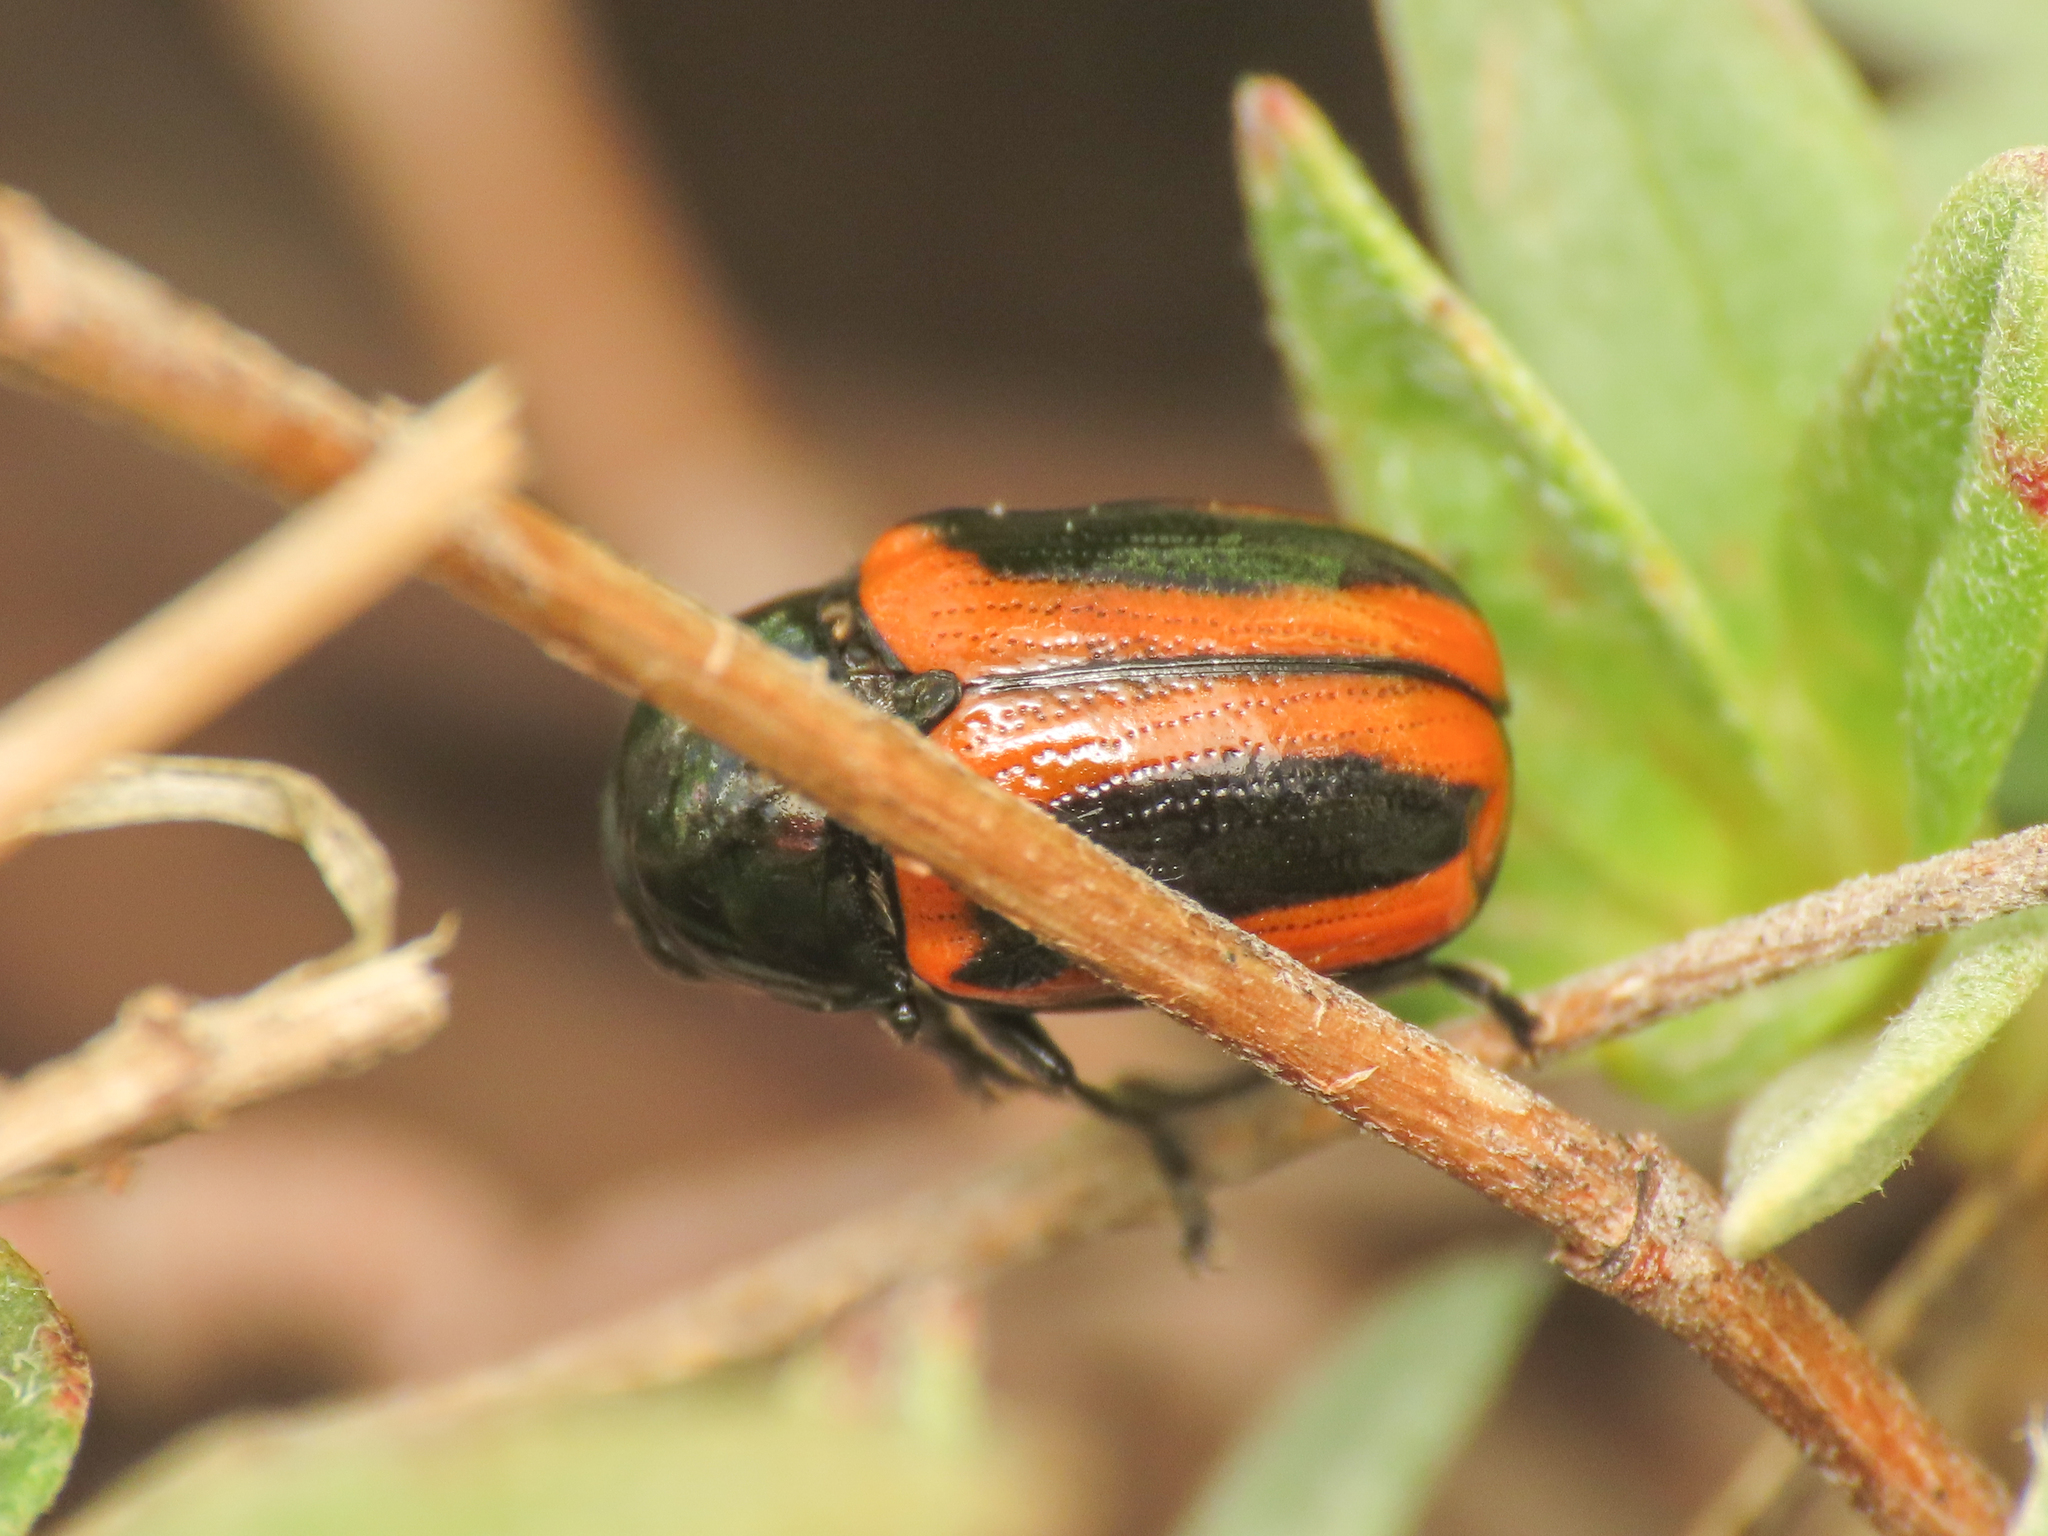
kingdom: Animalia
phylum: Arthropoda
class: Insecta
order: Coleoptera
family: Chrysomelidae
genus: Chiridopsis
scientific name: Chiridopsis bipunctata
